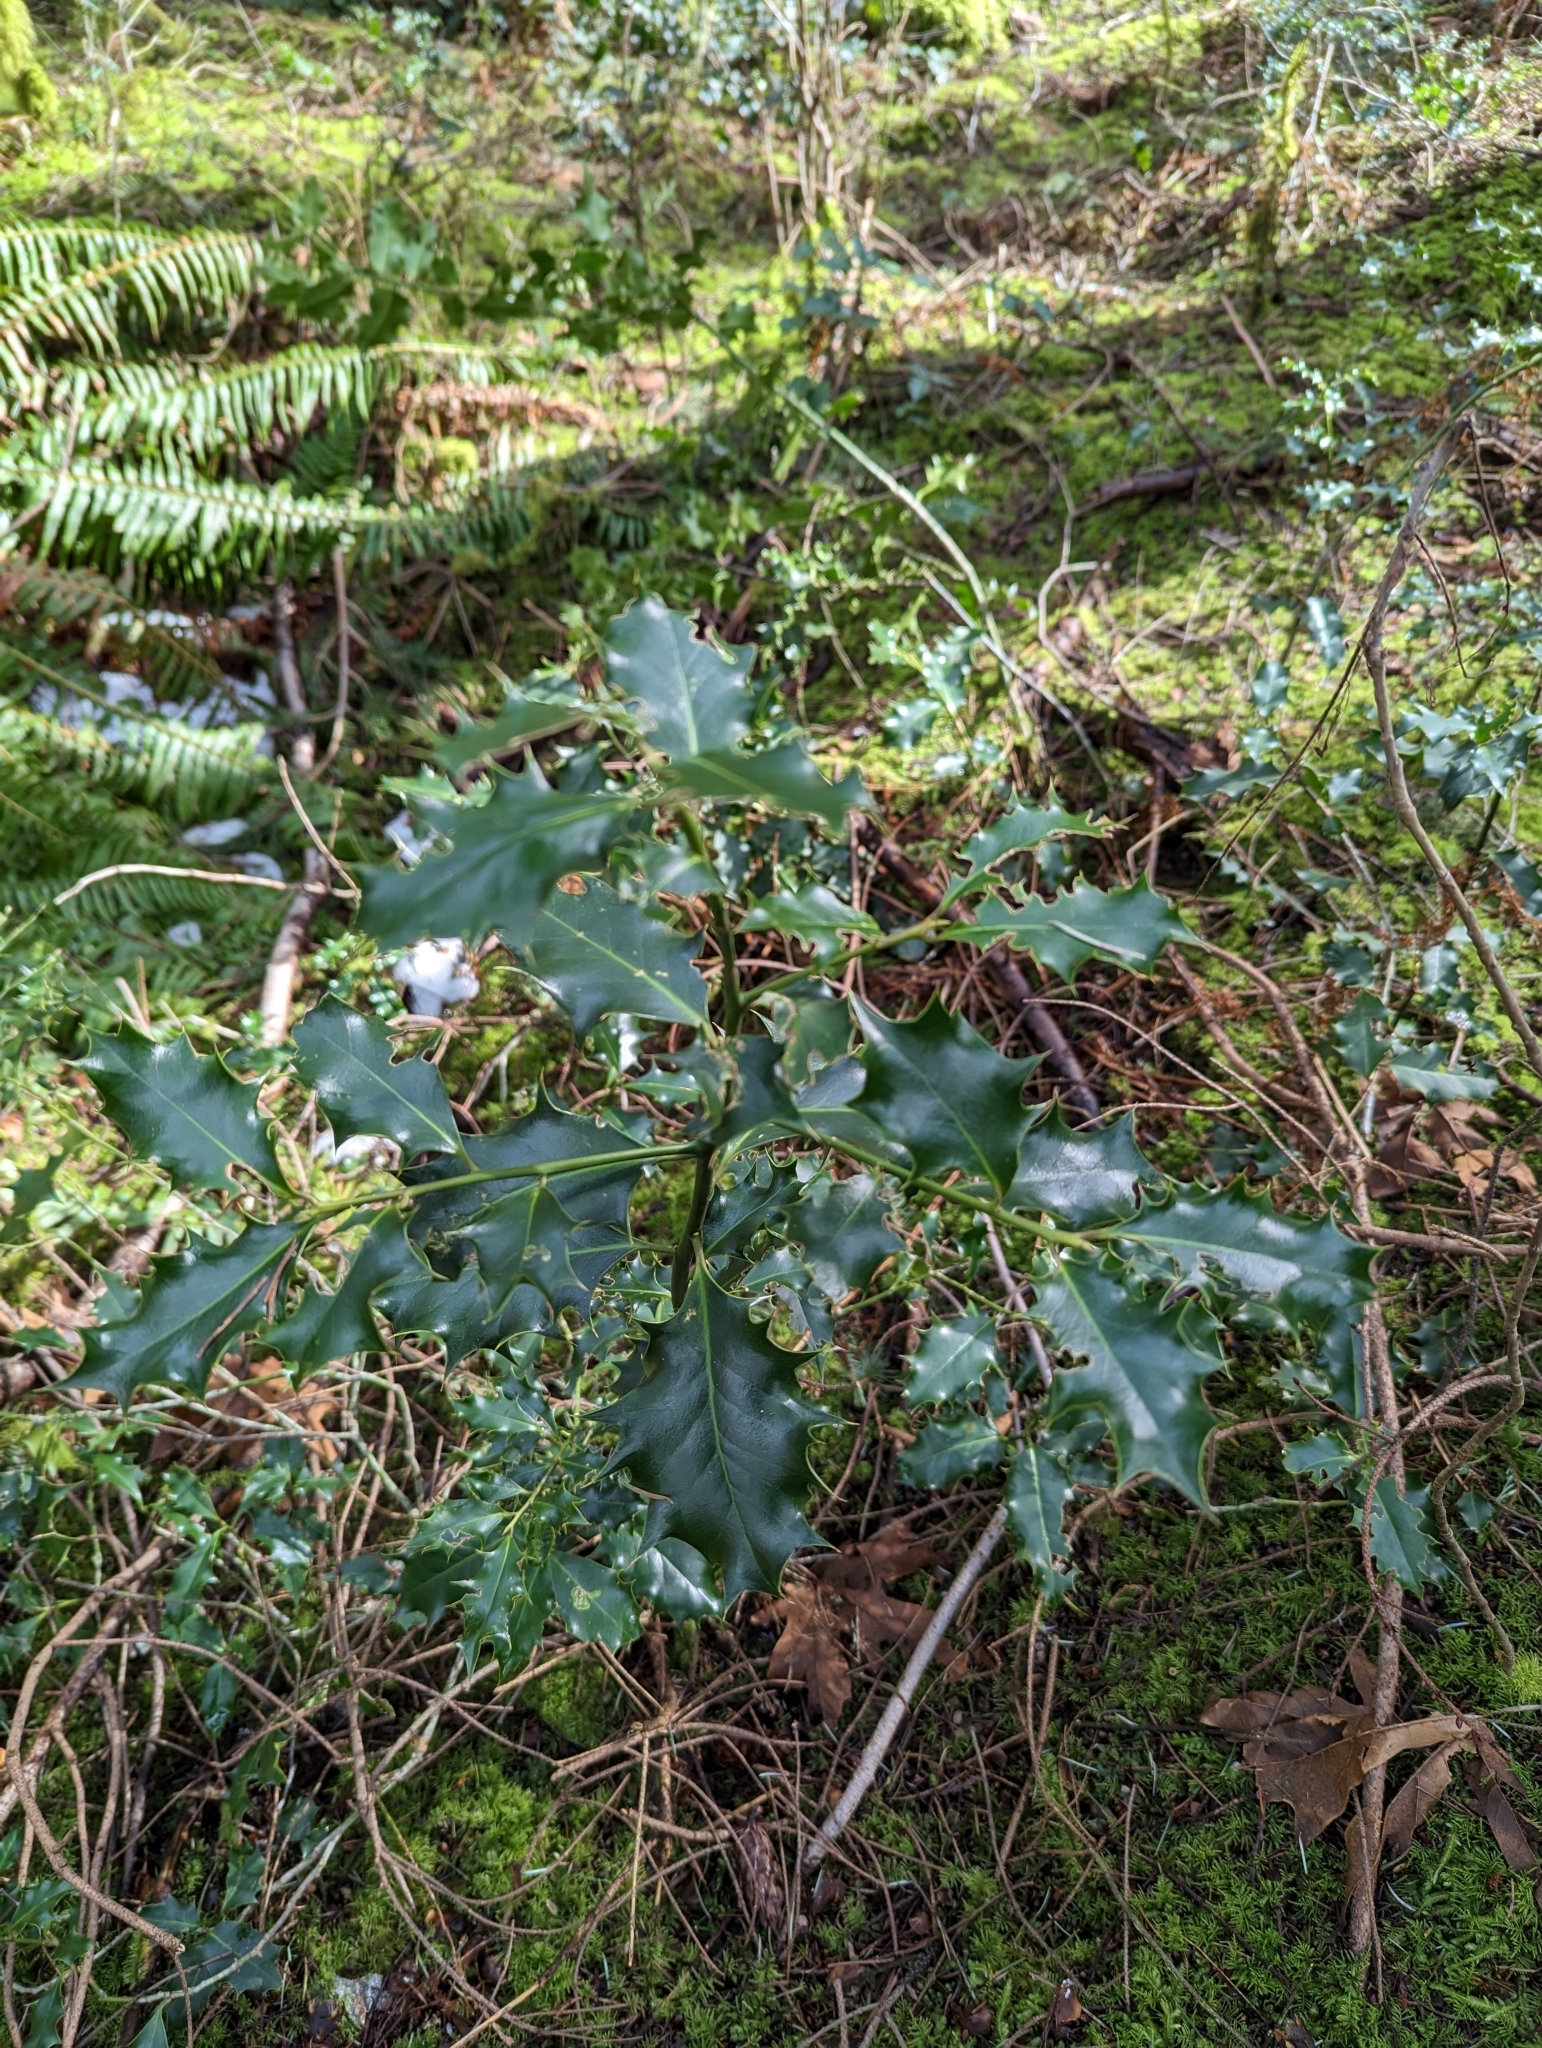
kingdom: Plantae
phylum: Tracheophyta
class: Magnoliopsida
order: Aquifoliales
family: Aquifoliaceae
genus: Ilex
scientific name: Ilex aquifolium
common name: English holly
